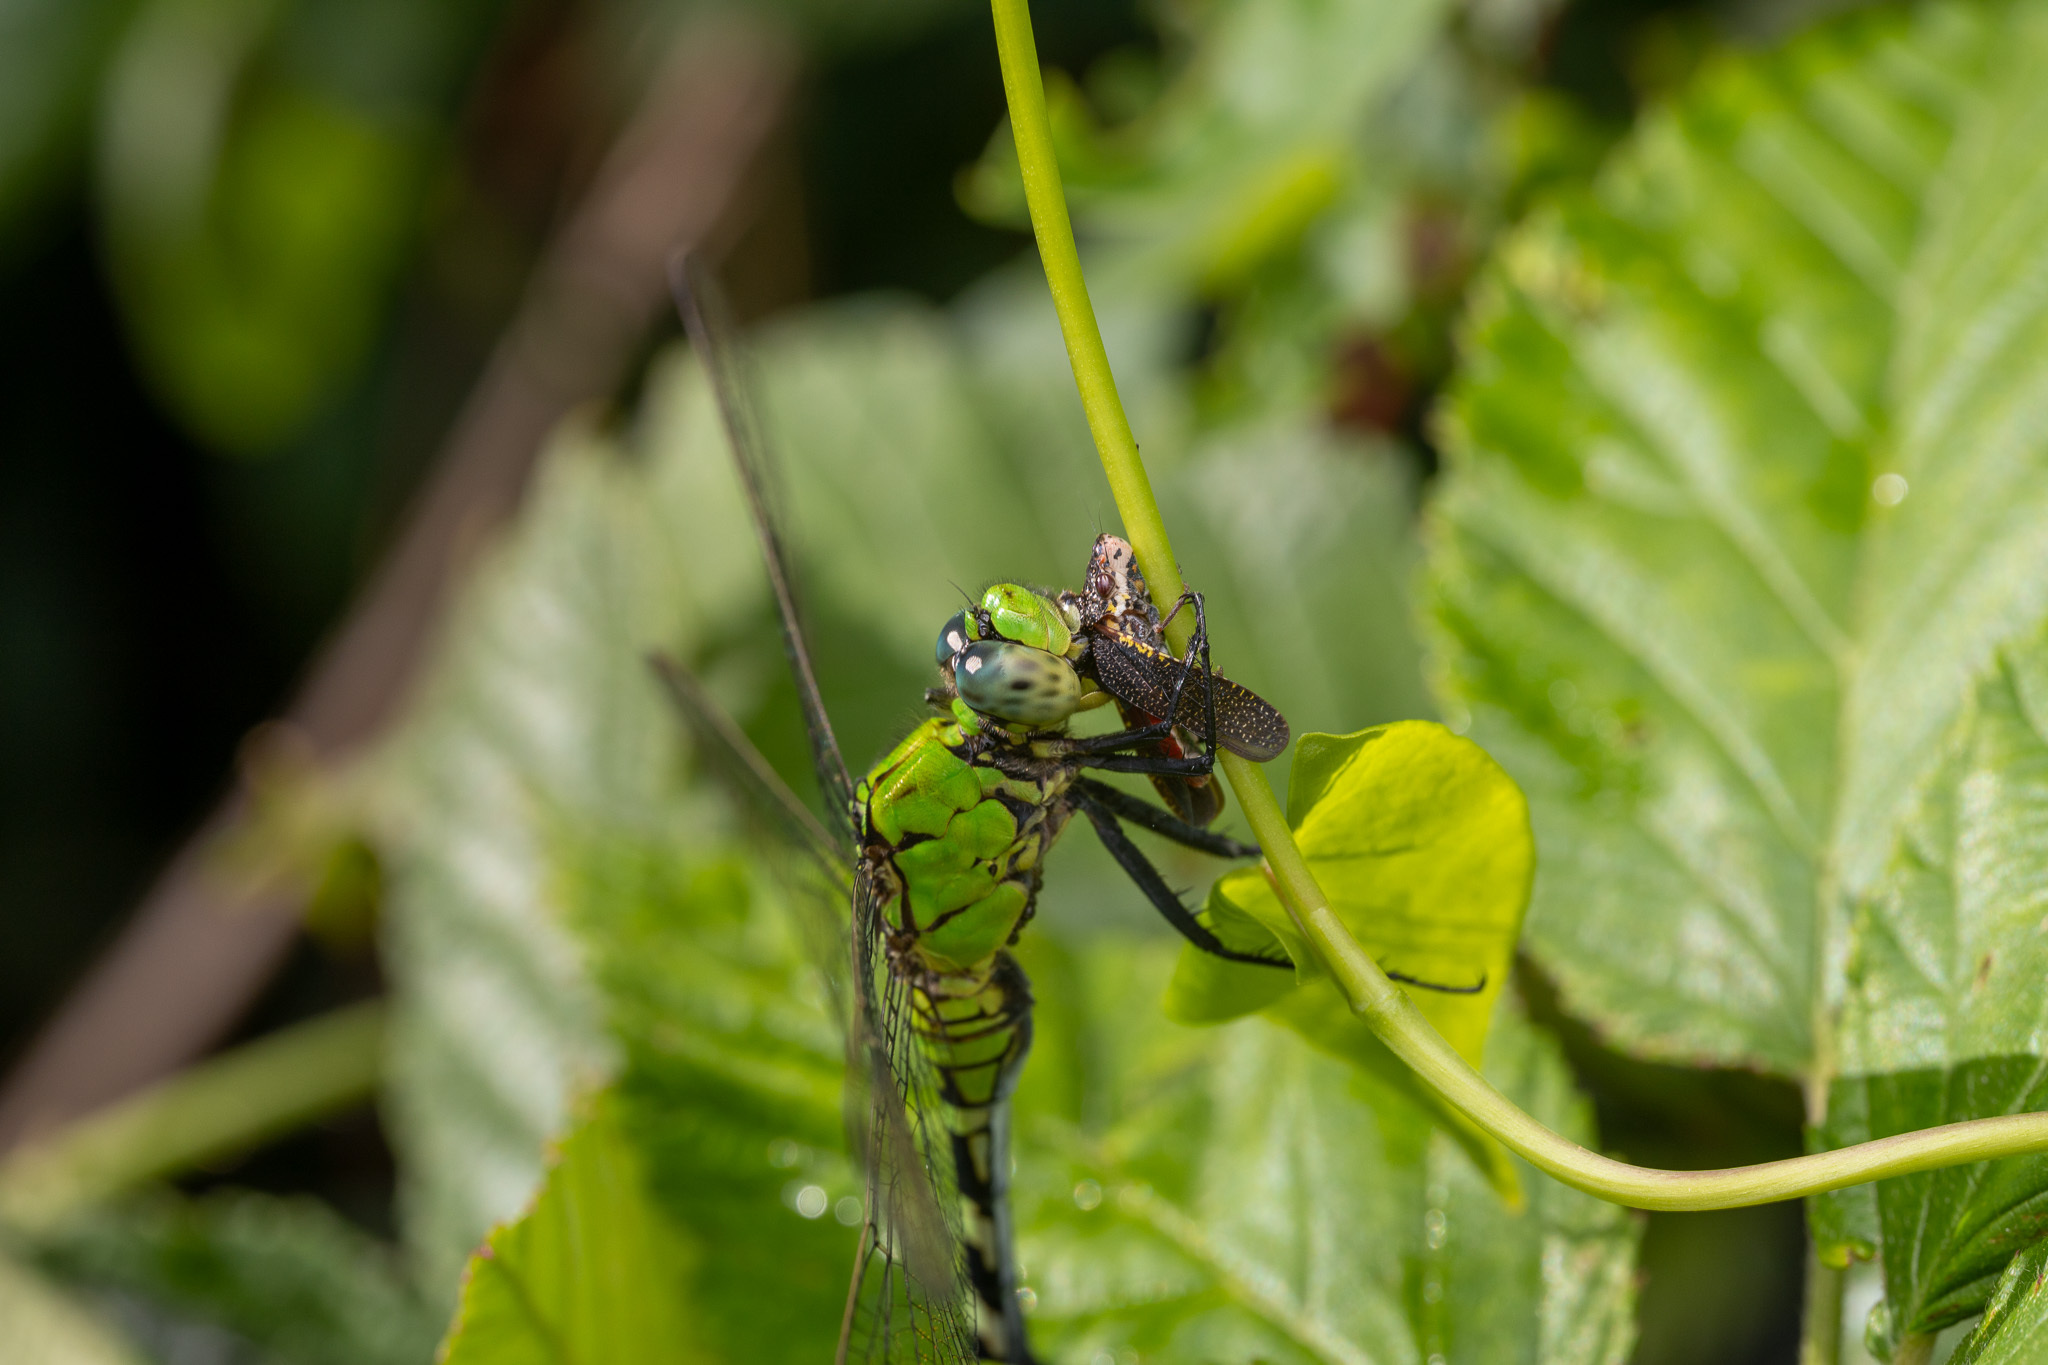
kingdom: Animalia
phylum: Arthropoda
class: Insecta
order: Odonata
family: Libellulidae
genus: Erythemis
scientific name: Erythemis simplicicollis
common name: Eastern pondhawk
